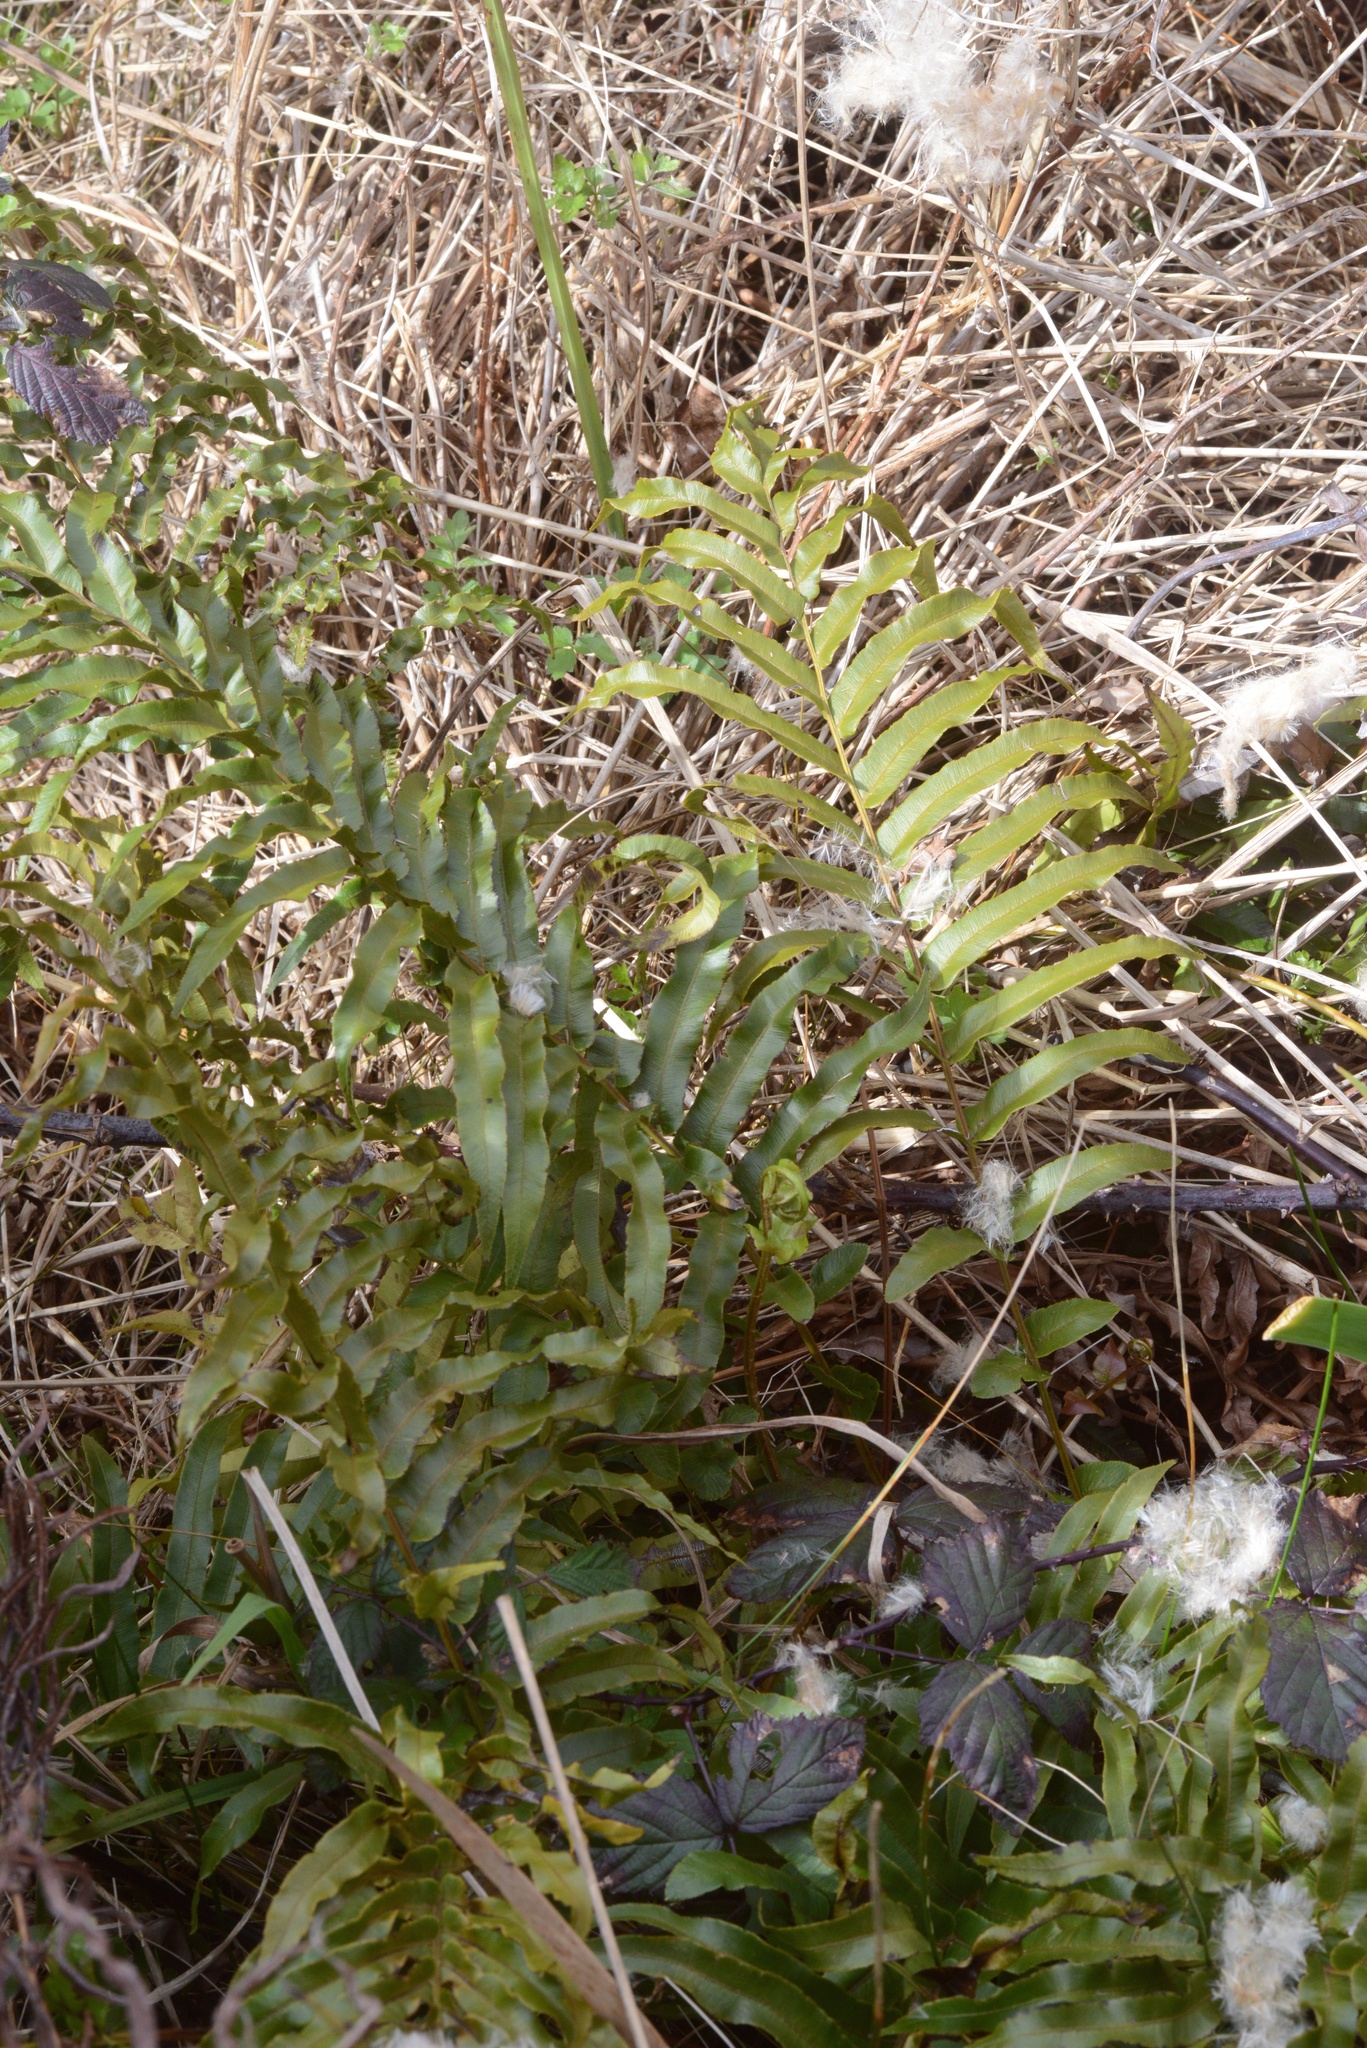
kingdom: Plantae
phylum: Tracheophyta
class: Polypodiopsida
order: Polypodiales
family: Blechnaceae
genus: Parablechnum
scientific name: Parablechnum novae-zelandiae
